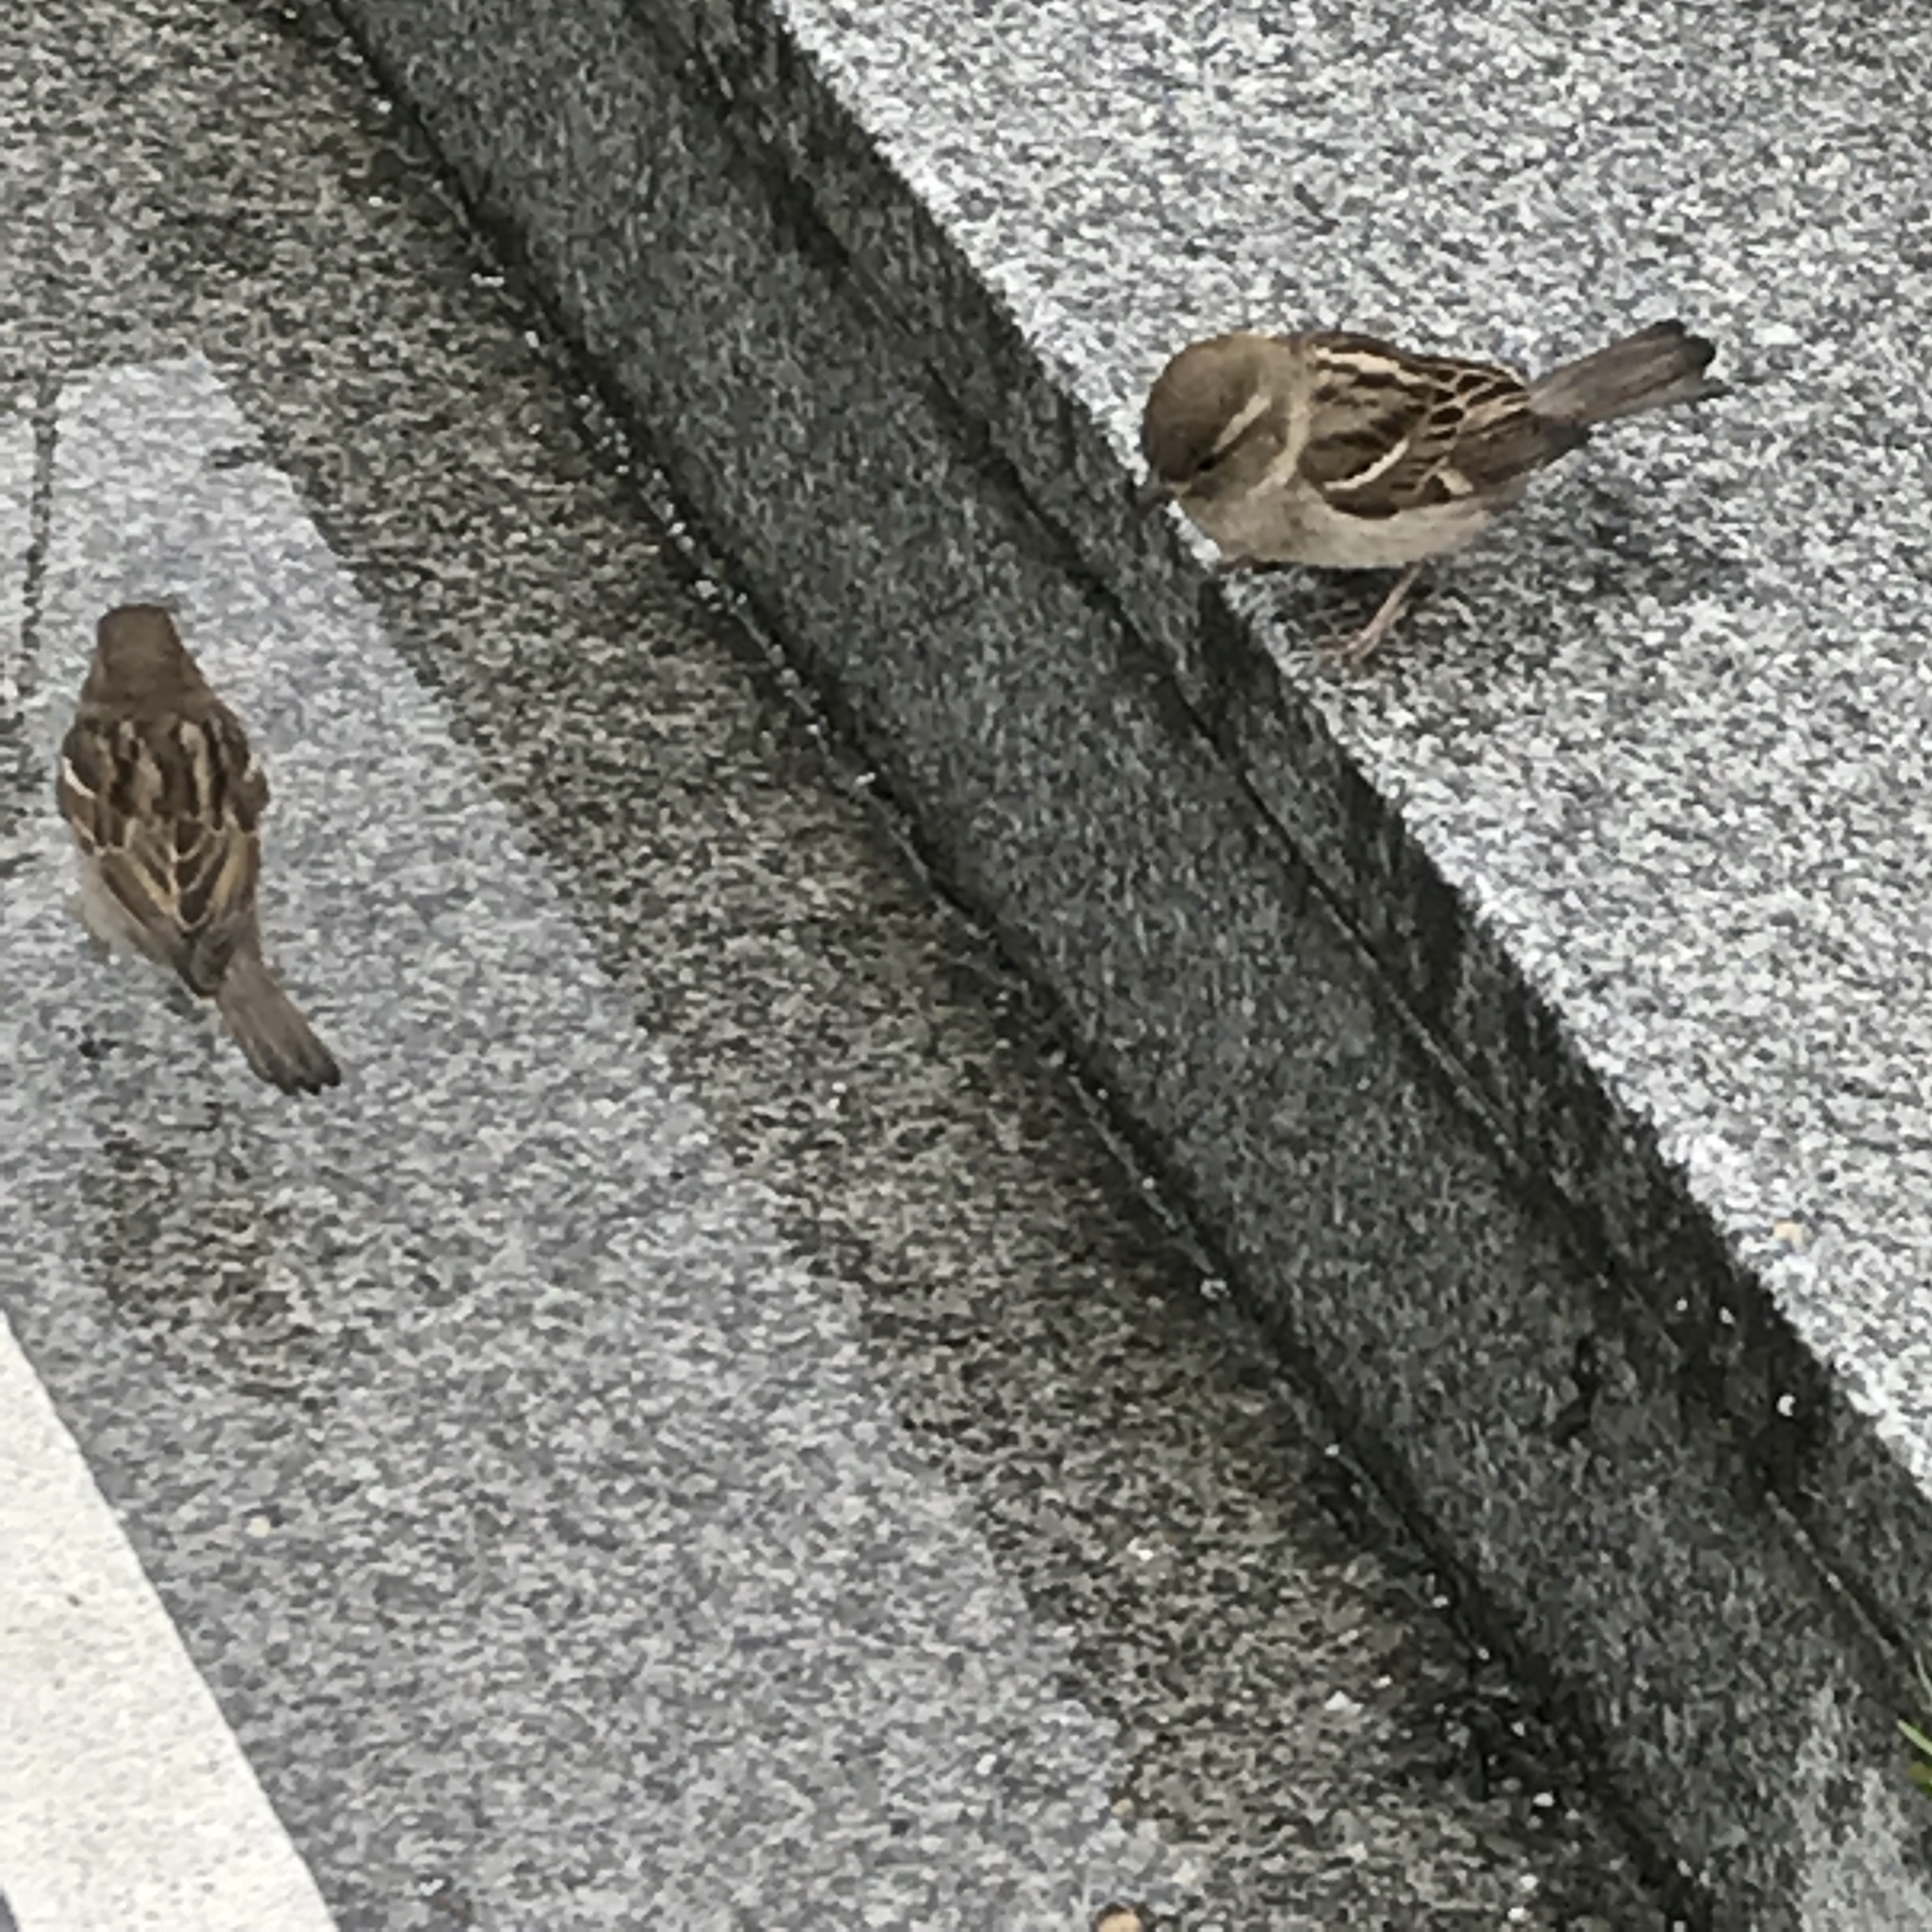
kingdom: Animalia
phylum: Chordata
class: Aves
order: Passeriformes
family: Passeridae
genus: Passer
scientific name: Passer domesticus
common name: House sparrow
